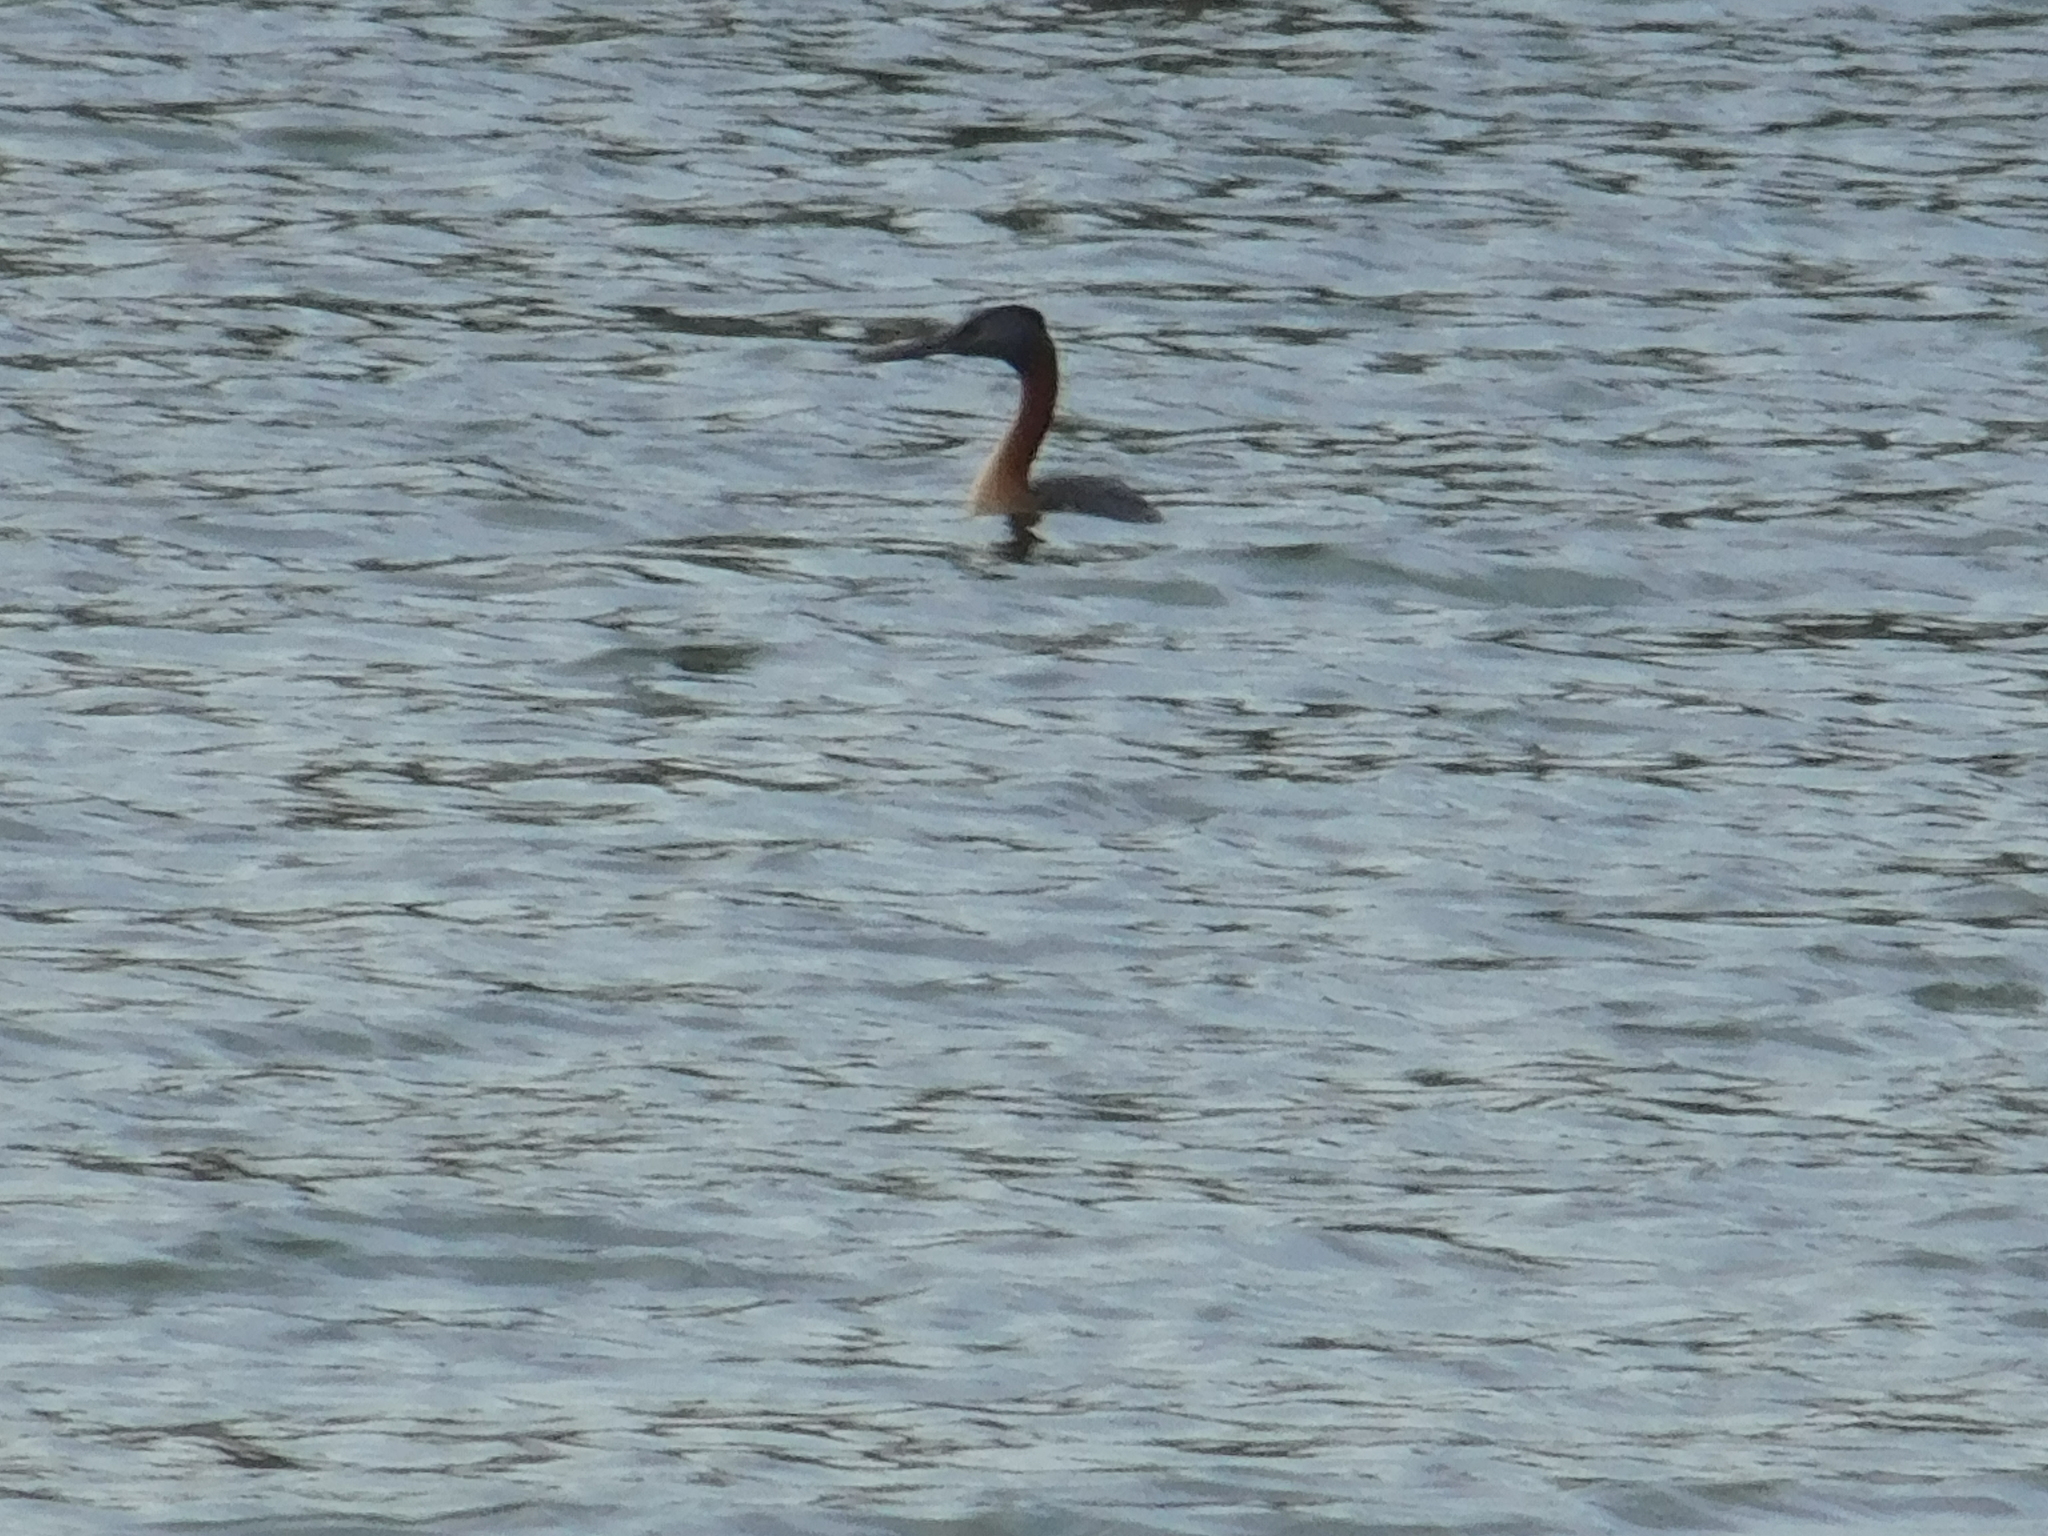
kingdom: Animalia
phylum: Chordata
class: Aves
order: Podicipediformes
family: Podicipedidae
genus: Podiceps
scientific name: Podiceps major
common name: Great grebe
